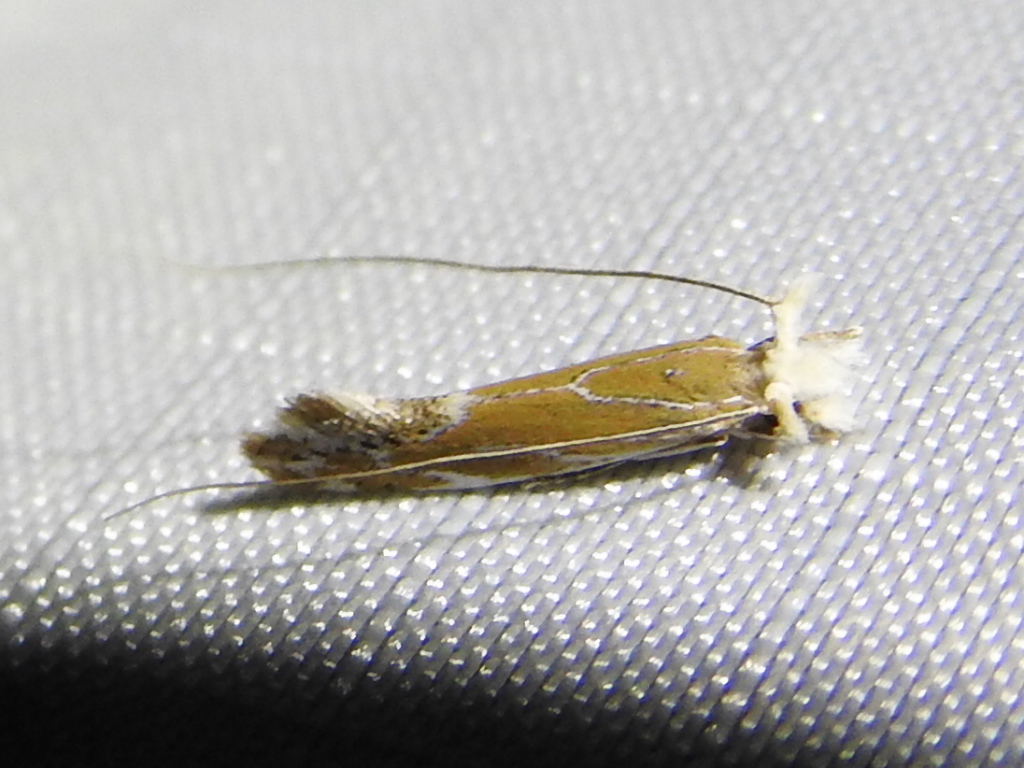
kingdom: Animalia
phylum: Arthropoda
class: Insecta
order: Lepidoptera
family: Tineidae
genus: Euprora
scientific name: Euprora argentilineella
